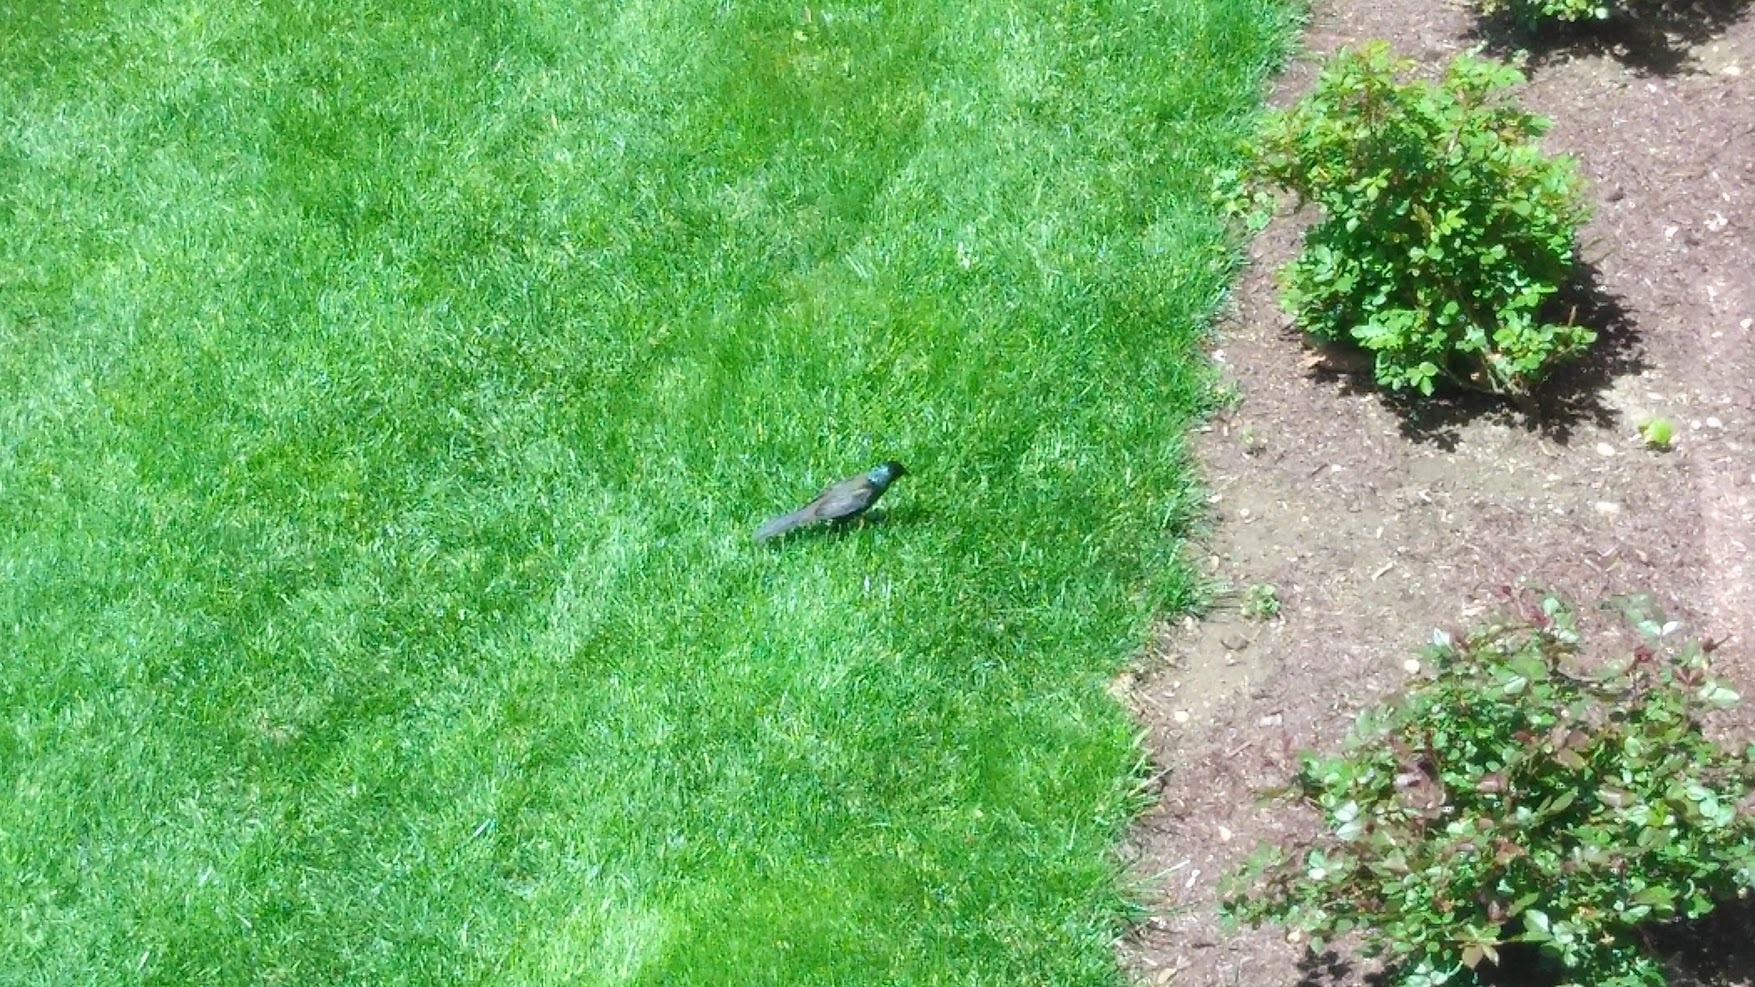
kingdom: Animalia
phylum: Chordata
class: Aves
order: Passeriformes
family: Icteridae
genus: Quiscalus
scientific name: Quiscalus quiscula
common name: Common grackle
